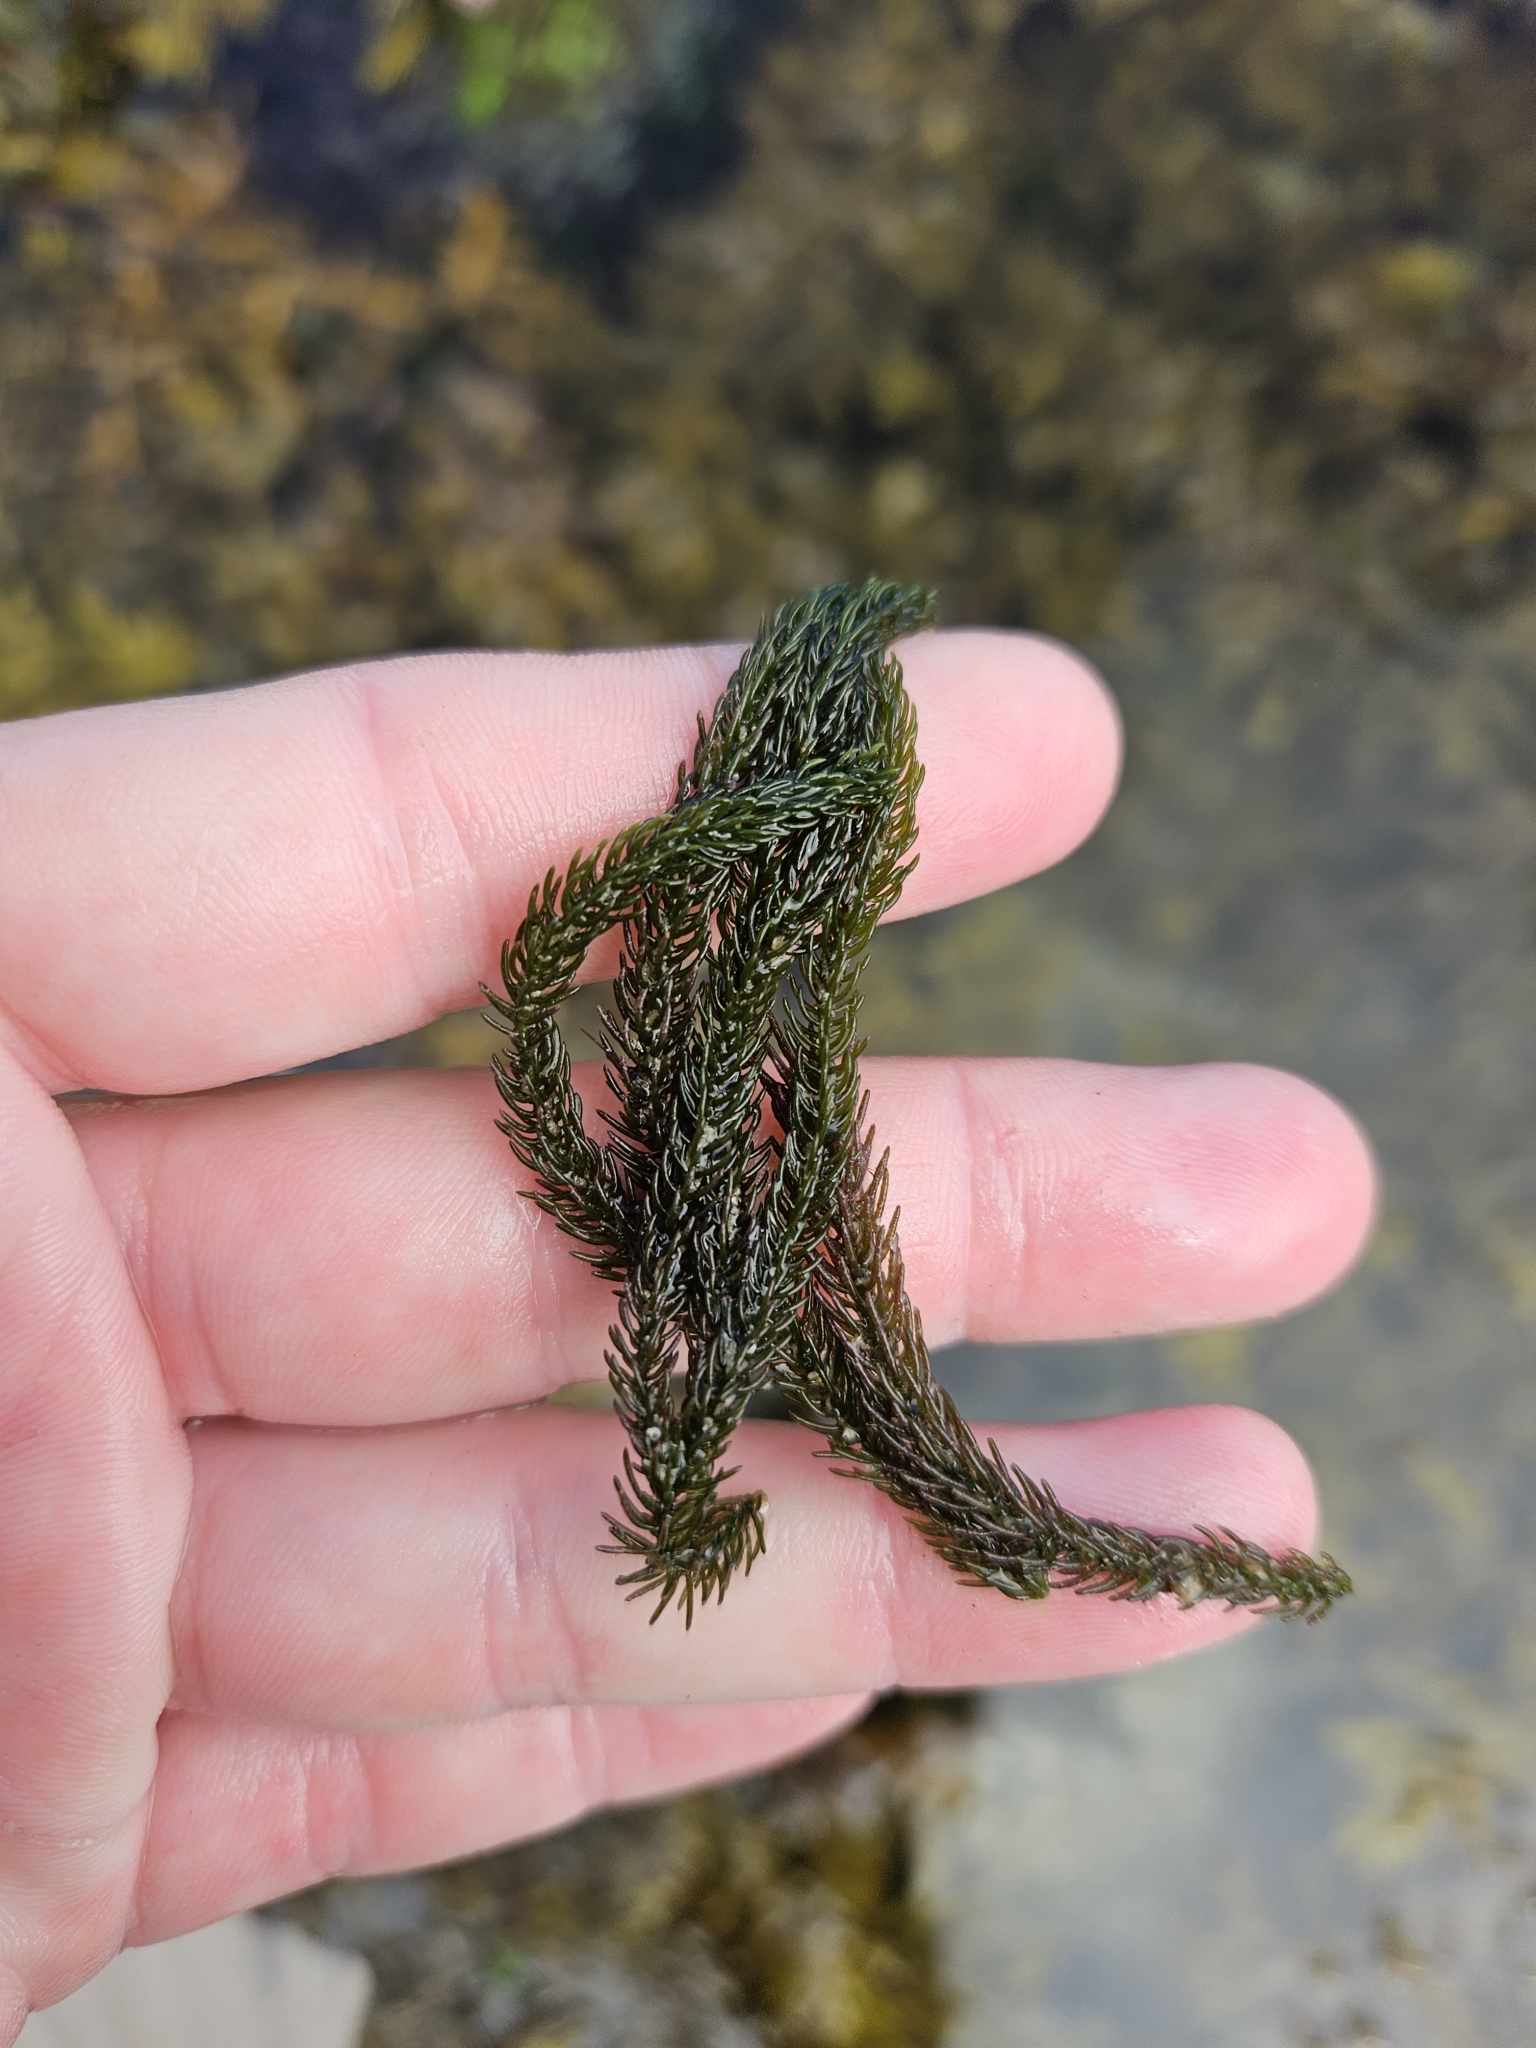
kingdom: Plantae
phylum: Chlorophyta
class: Ulvophyceae
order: Bryopsidales
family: Caulerpaceae
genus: Caulerpa
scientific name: Caulerpa brownii
